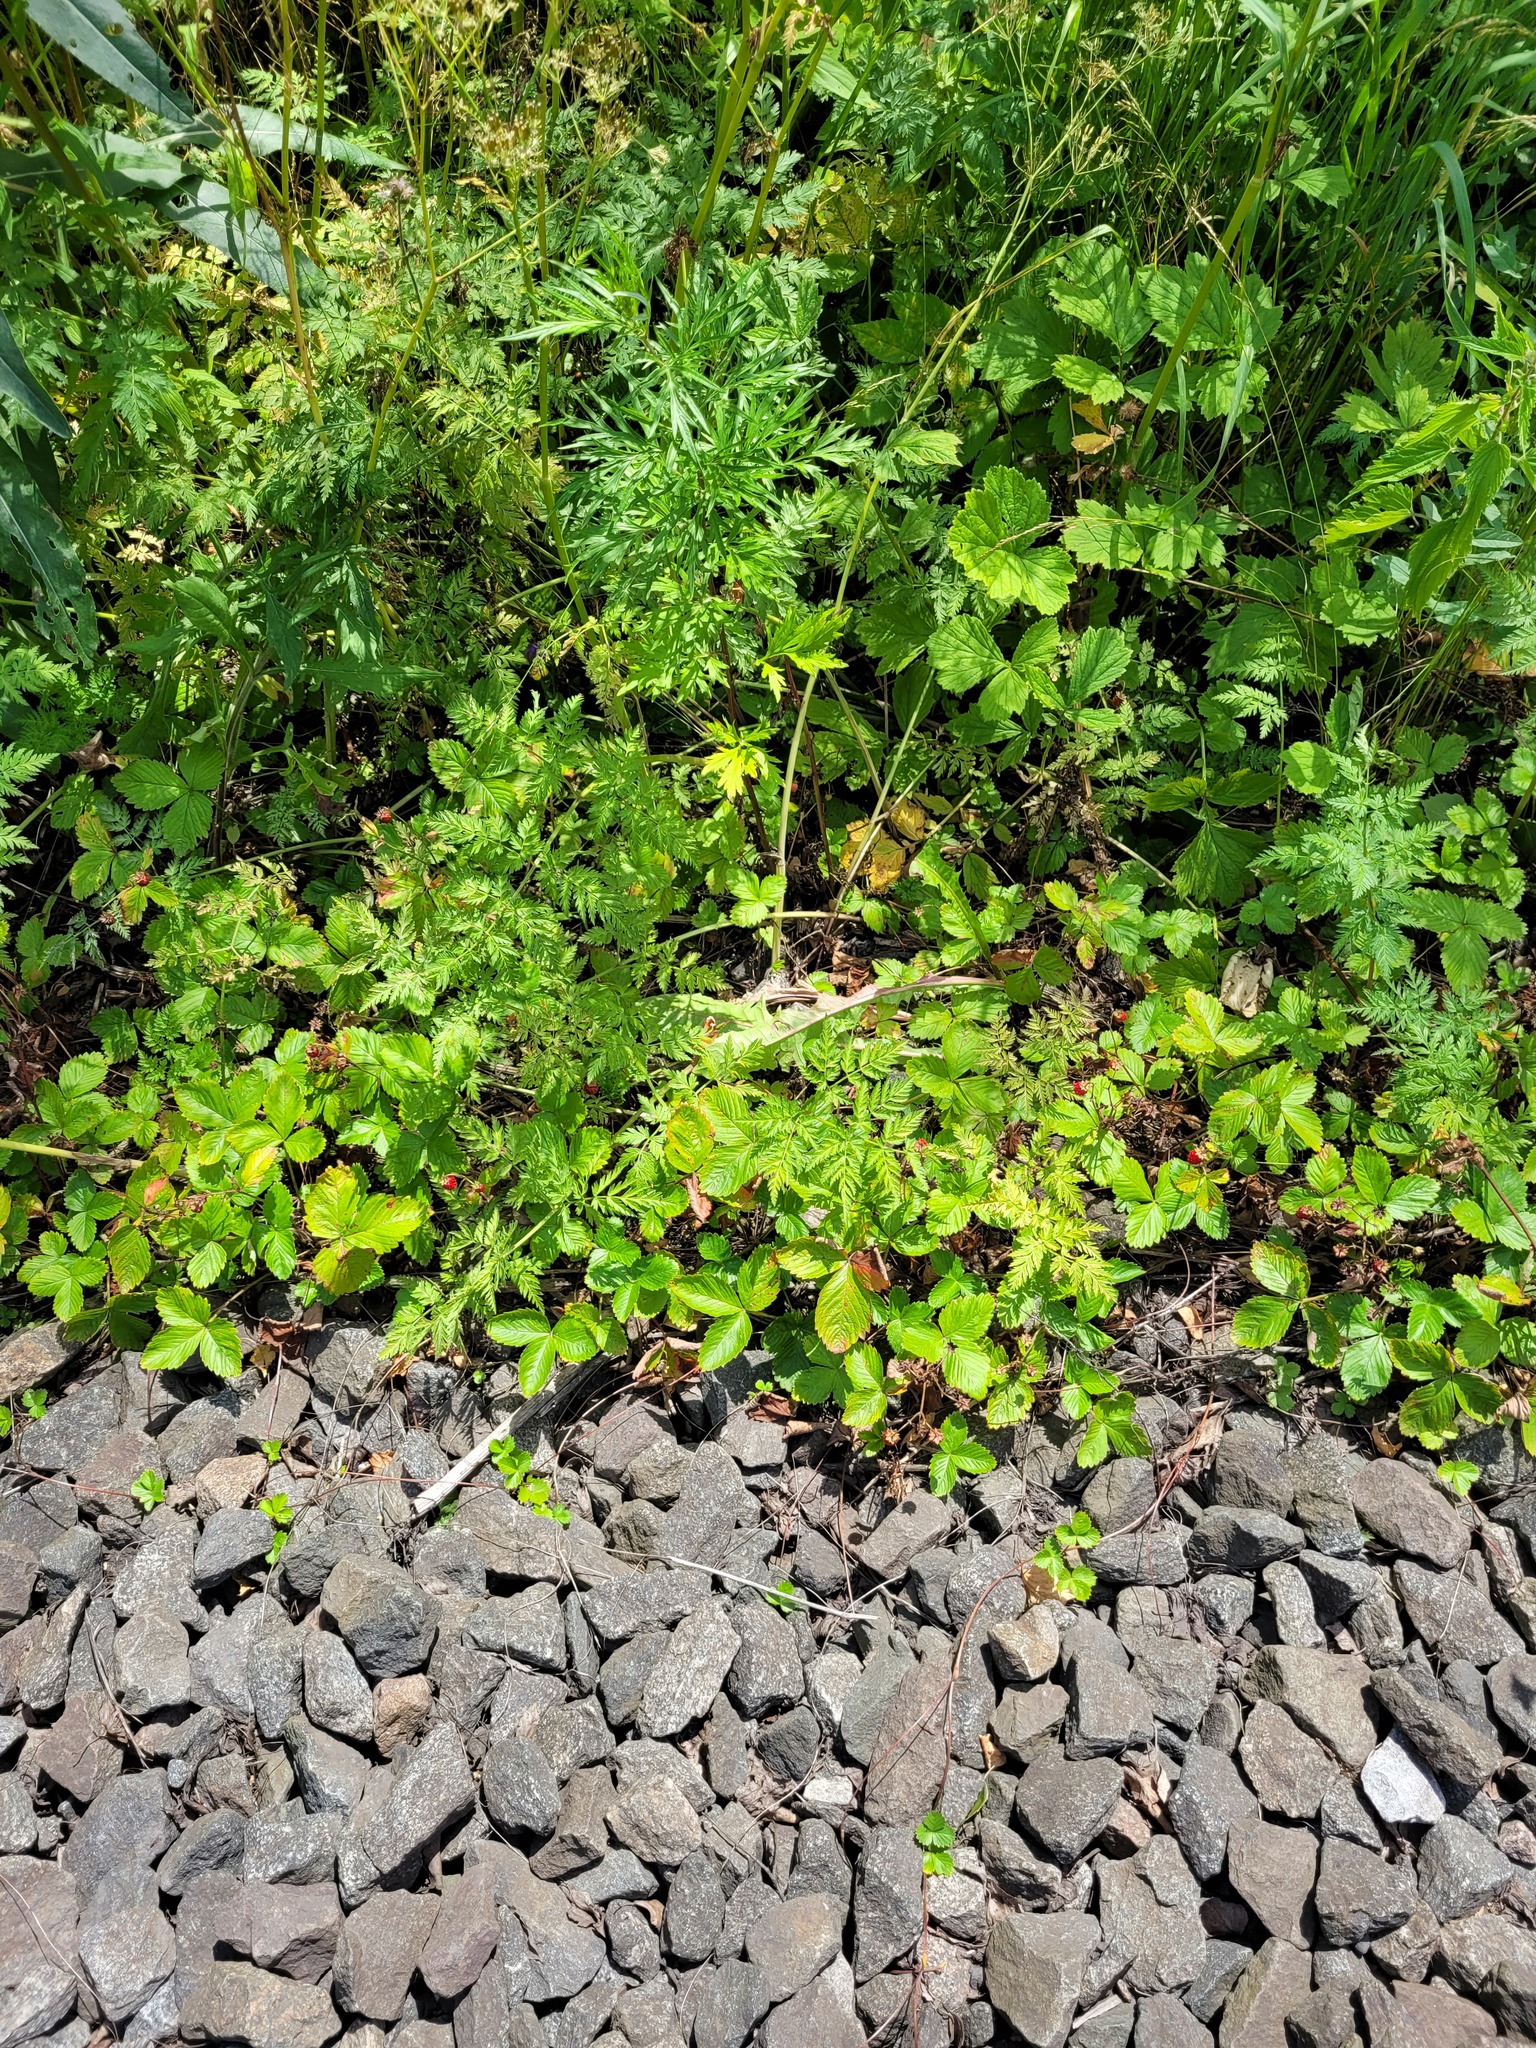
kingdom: Plantae
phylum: Tracheophyta
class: Magnoliopsida
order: Rosales
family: Rosaceae
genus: Fragaria
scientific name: Fragaria vesca
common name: Wild strawberry
